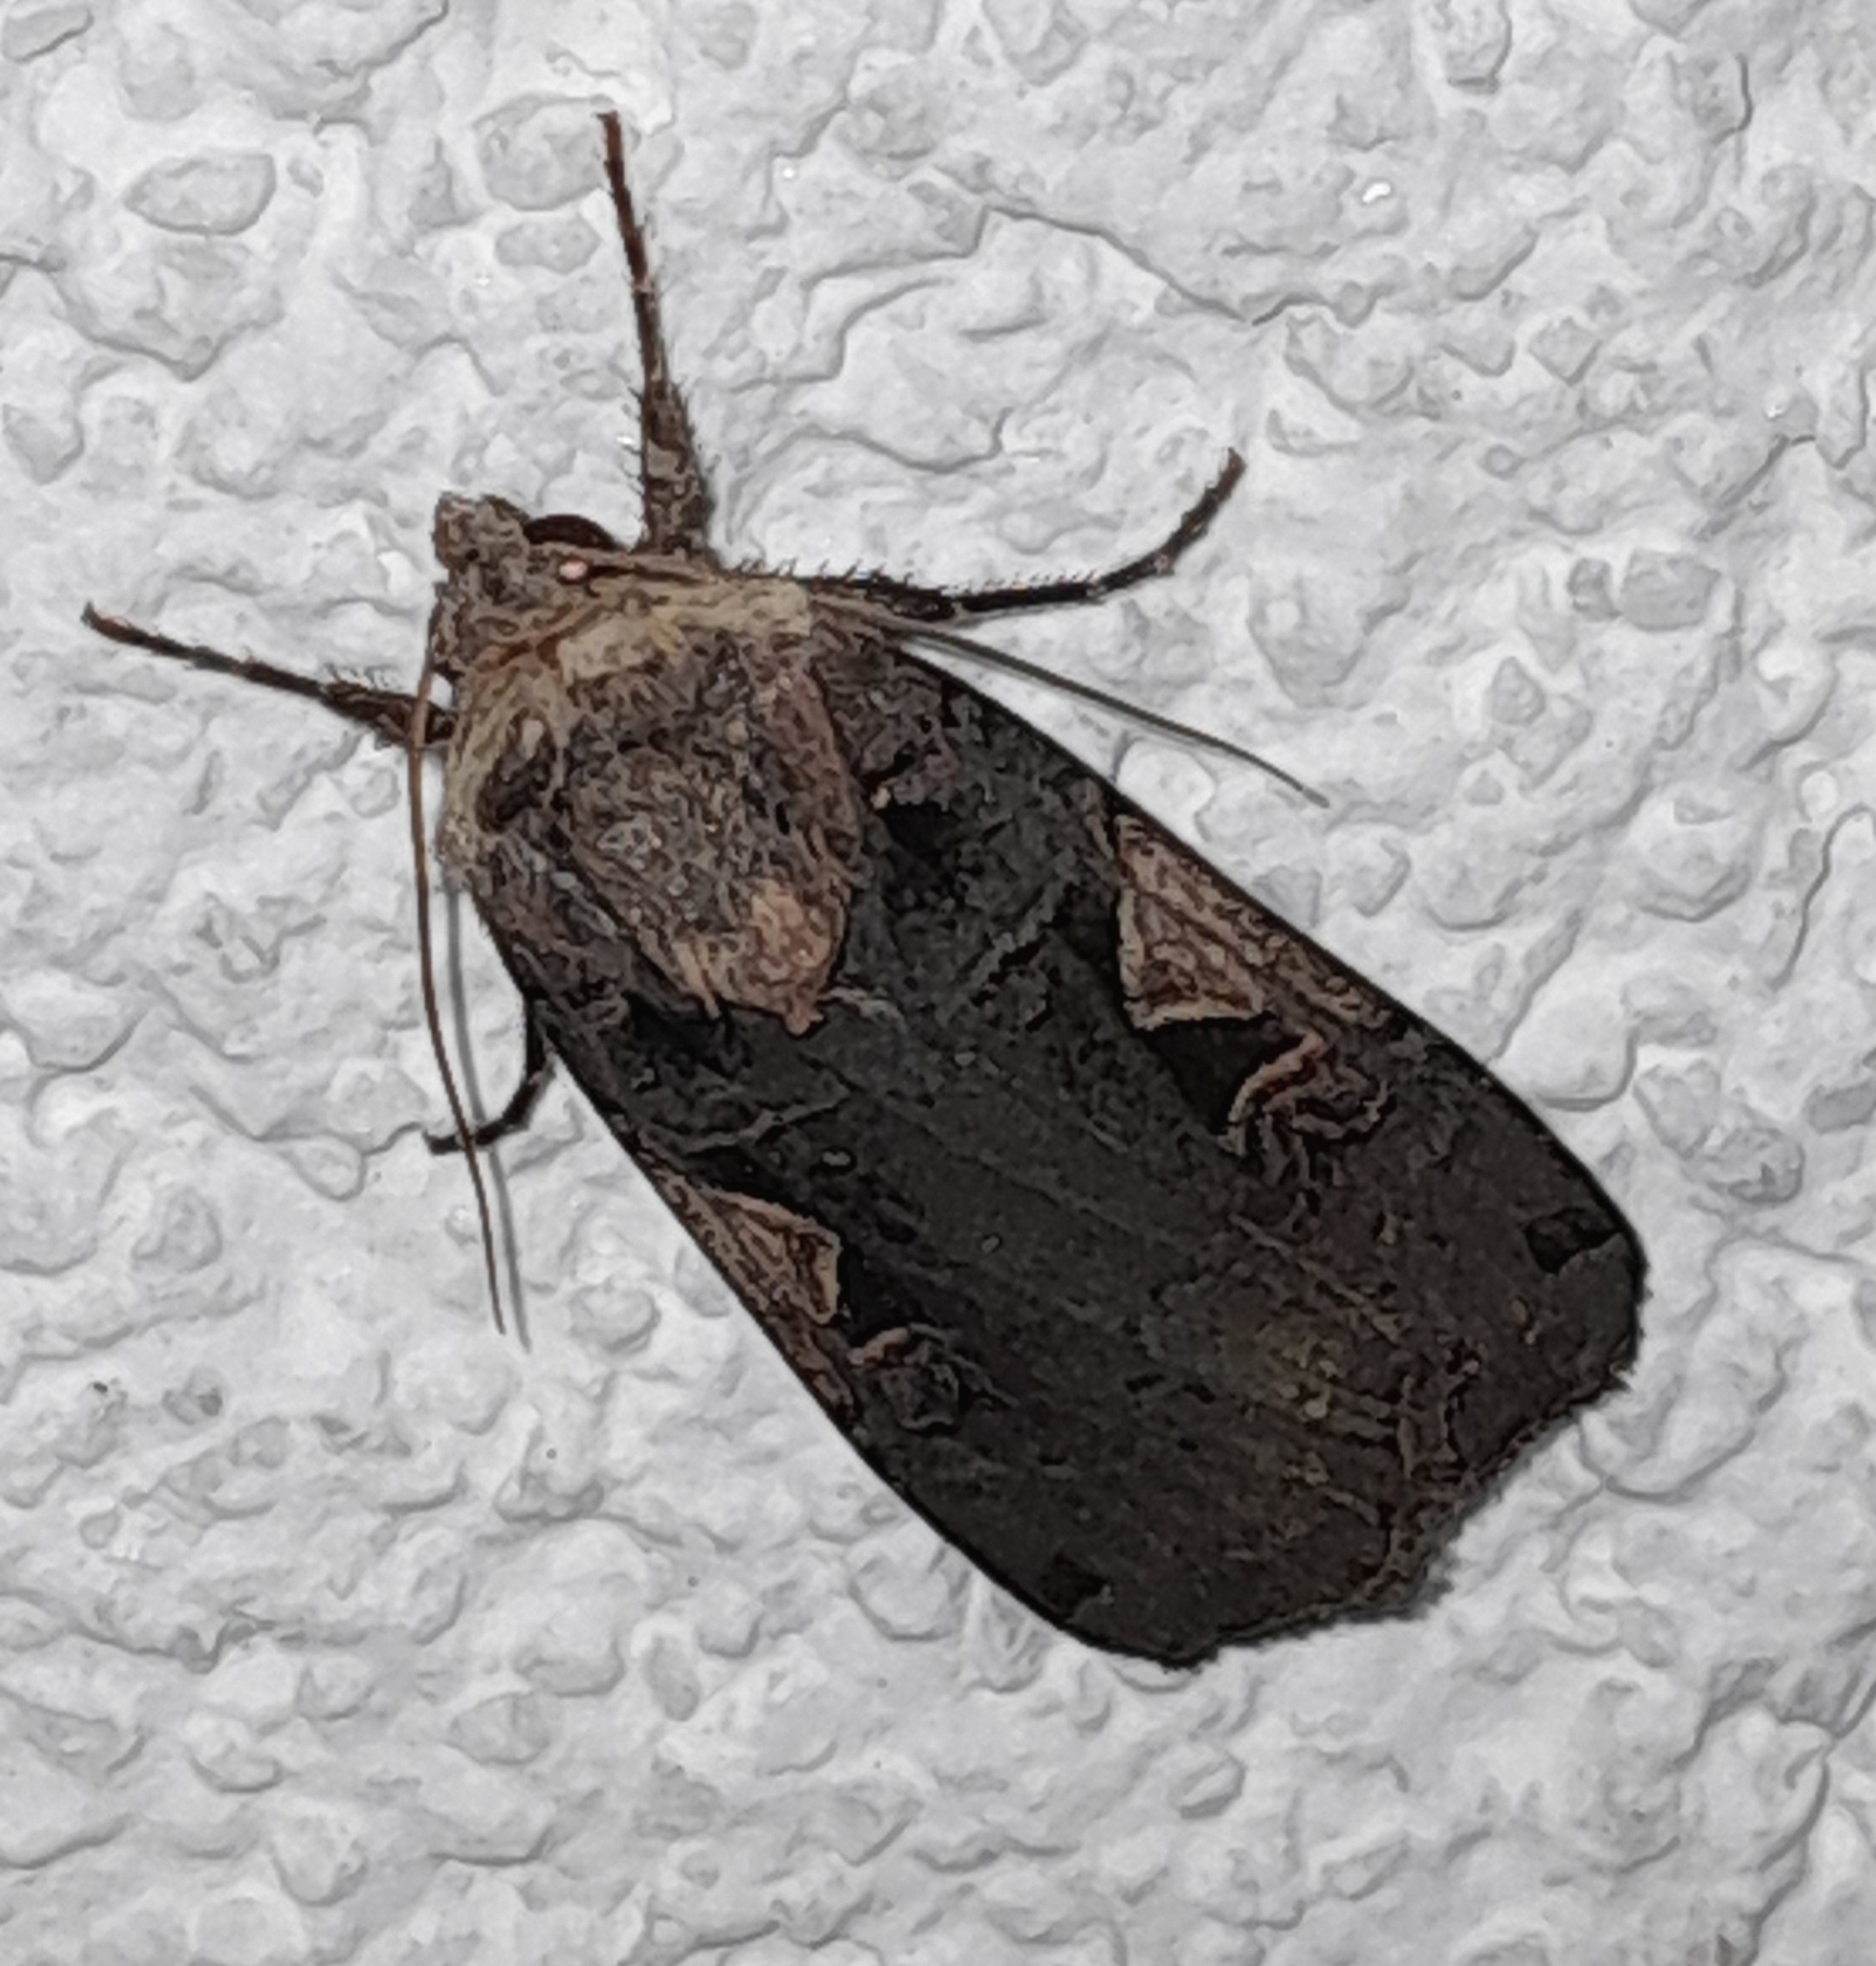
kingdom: Animalia
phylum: Arthropoda
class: Insecta
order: Lepidoptera
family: Noctuidae
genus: Xestia
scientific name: Xestia c-nigrum
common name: Setaceous hebrew character
